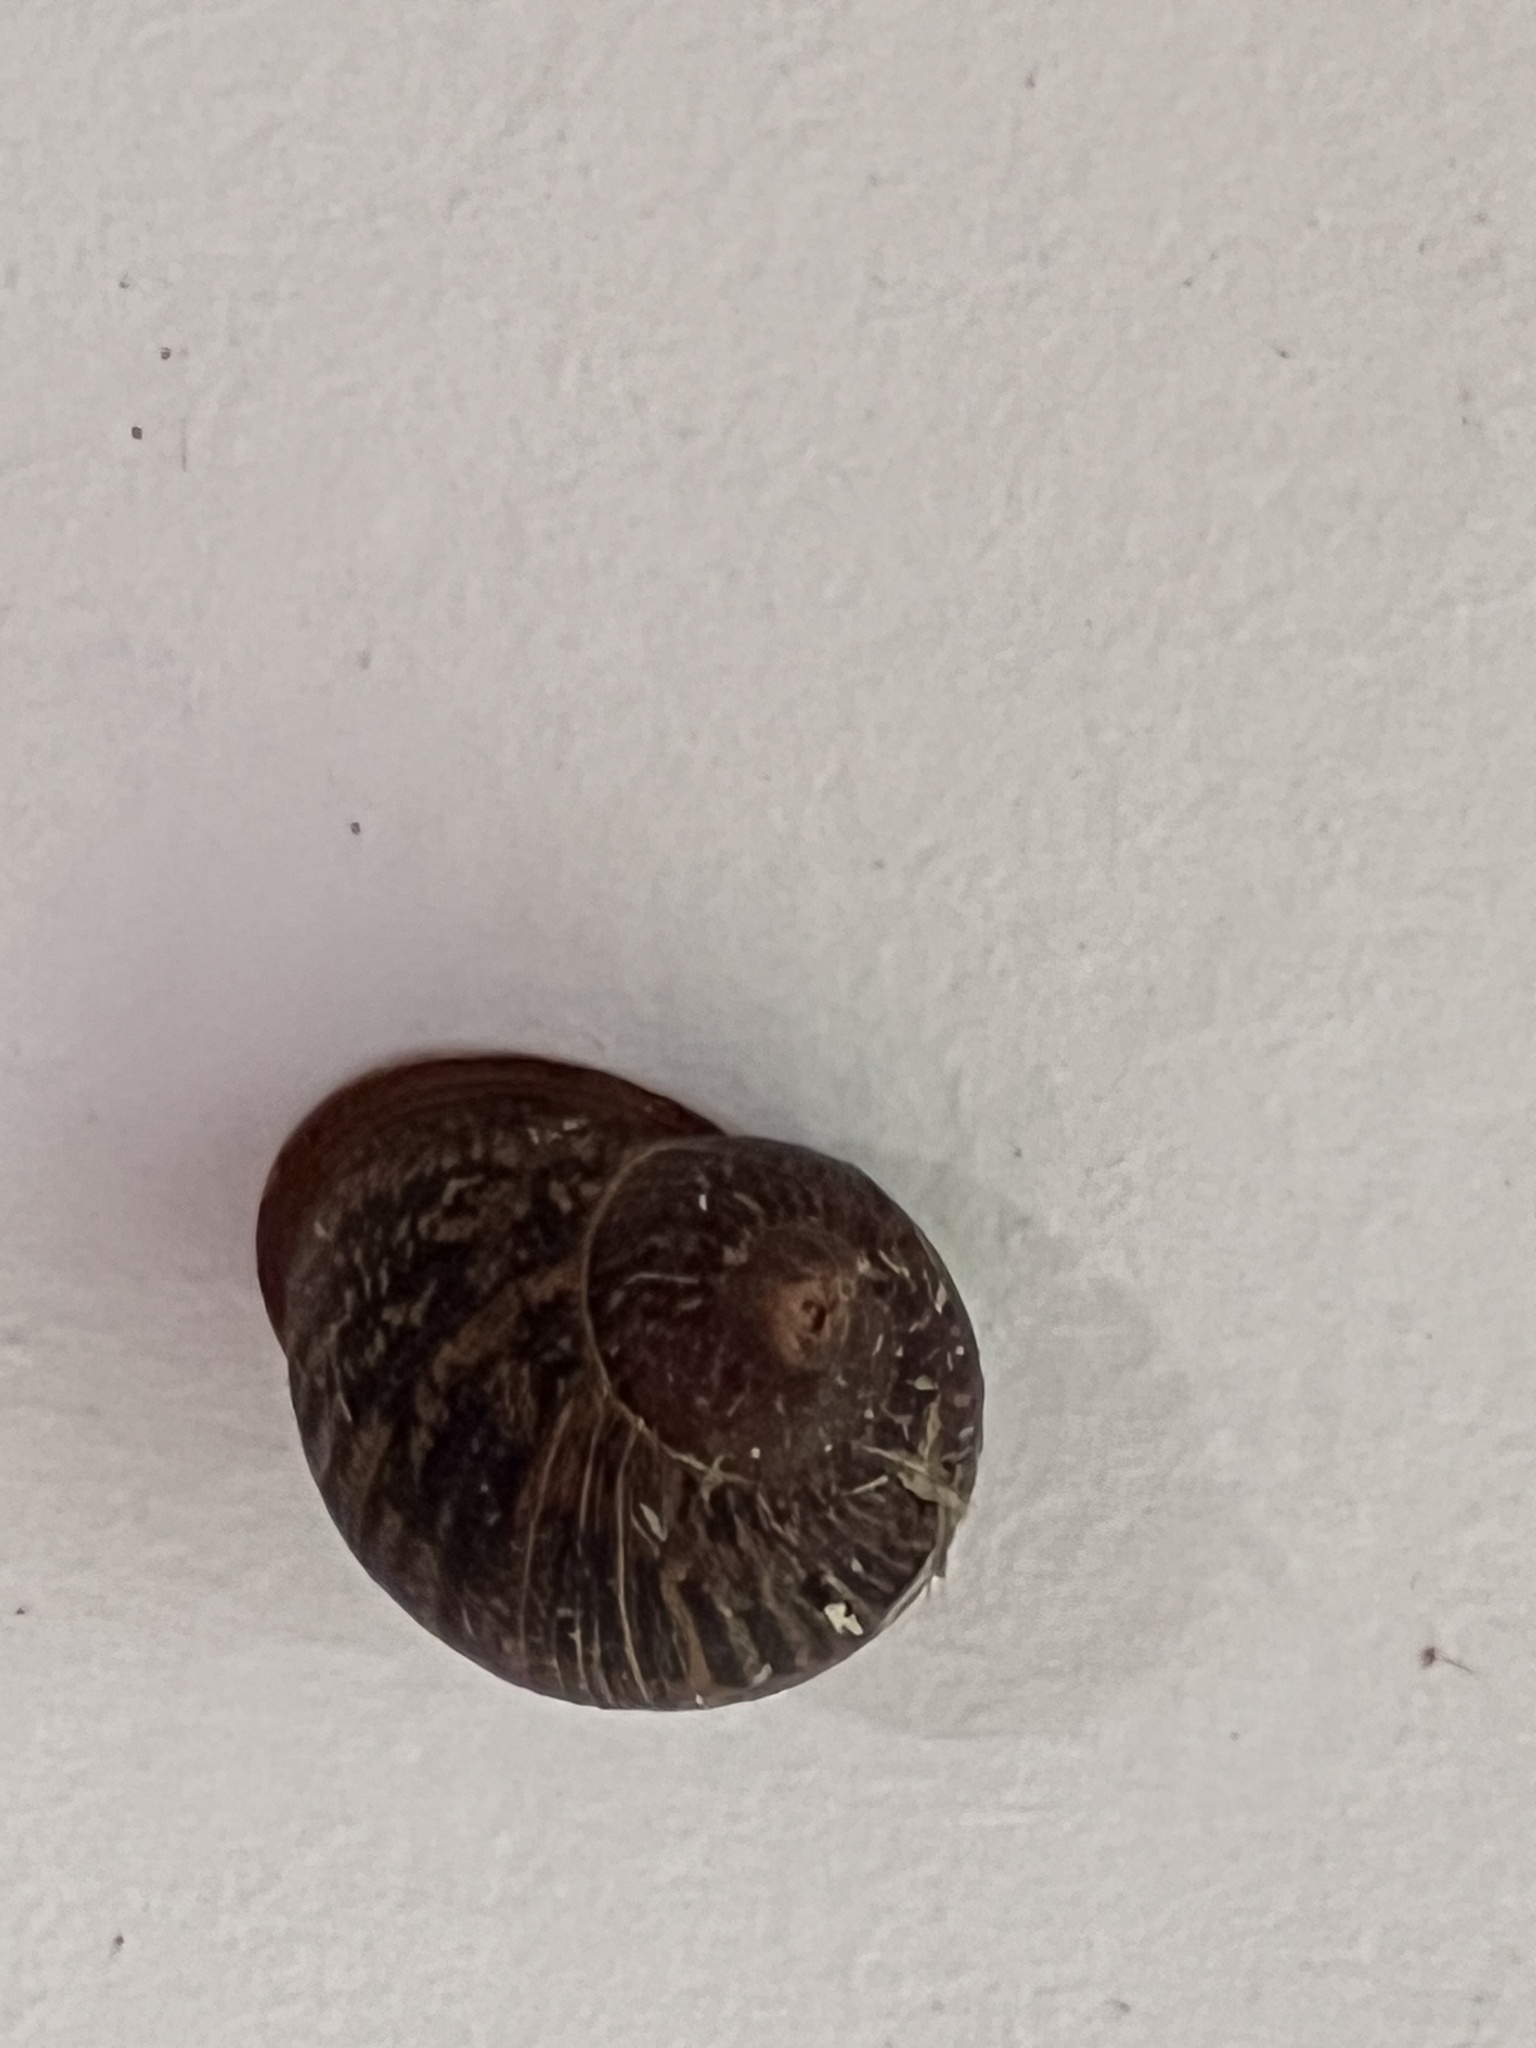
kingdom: Animalia
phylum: Mollusca
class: Gastropoda
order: Stylommatophora
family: Helicidae
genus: Cornu
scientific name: Cornu aspersum
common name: Brown garden snail
